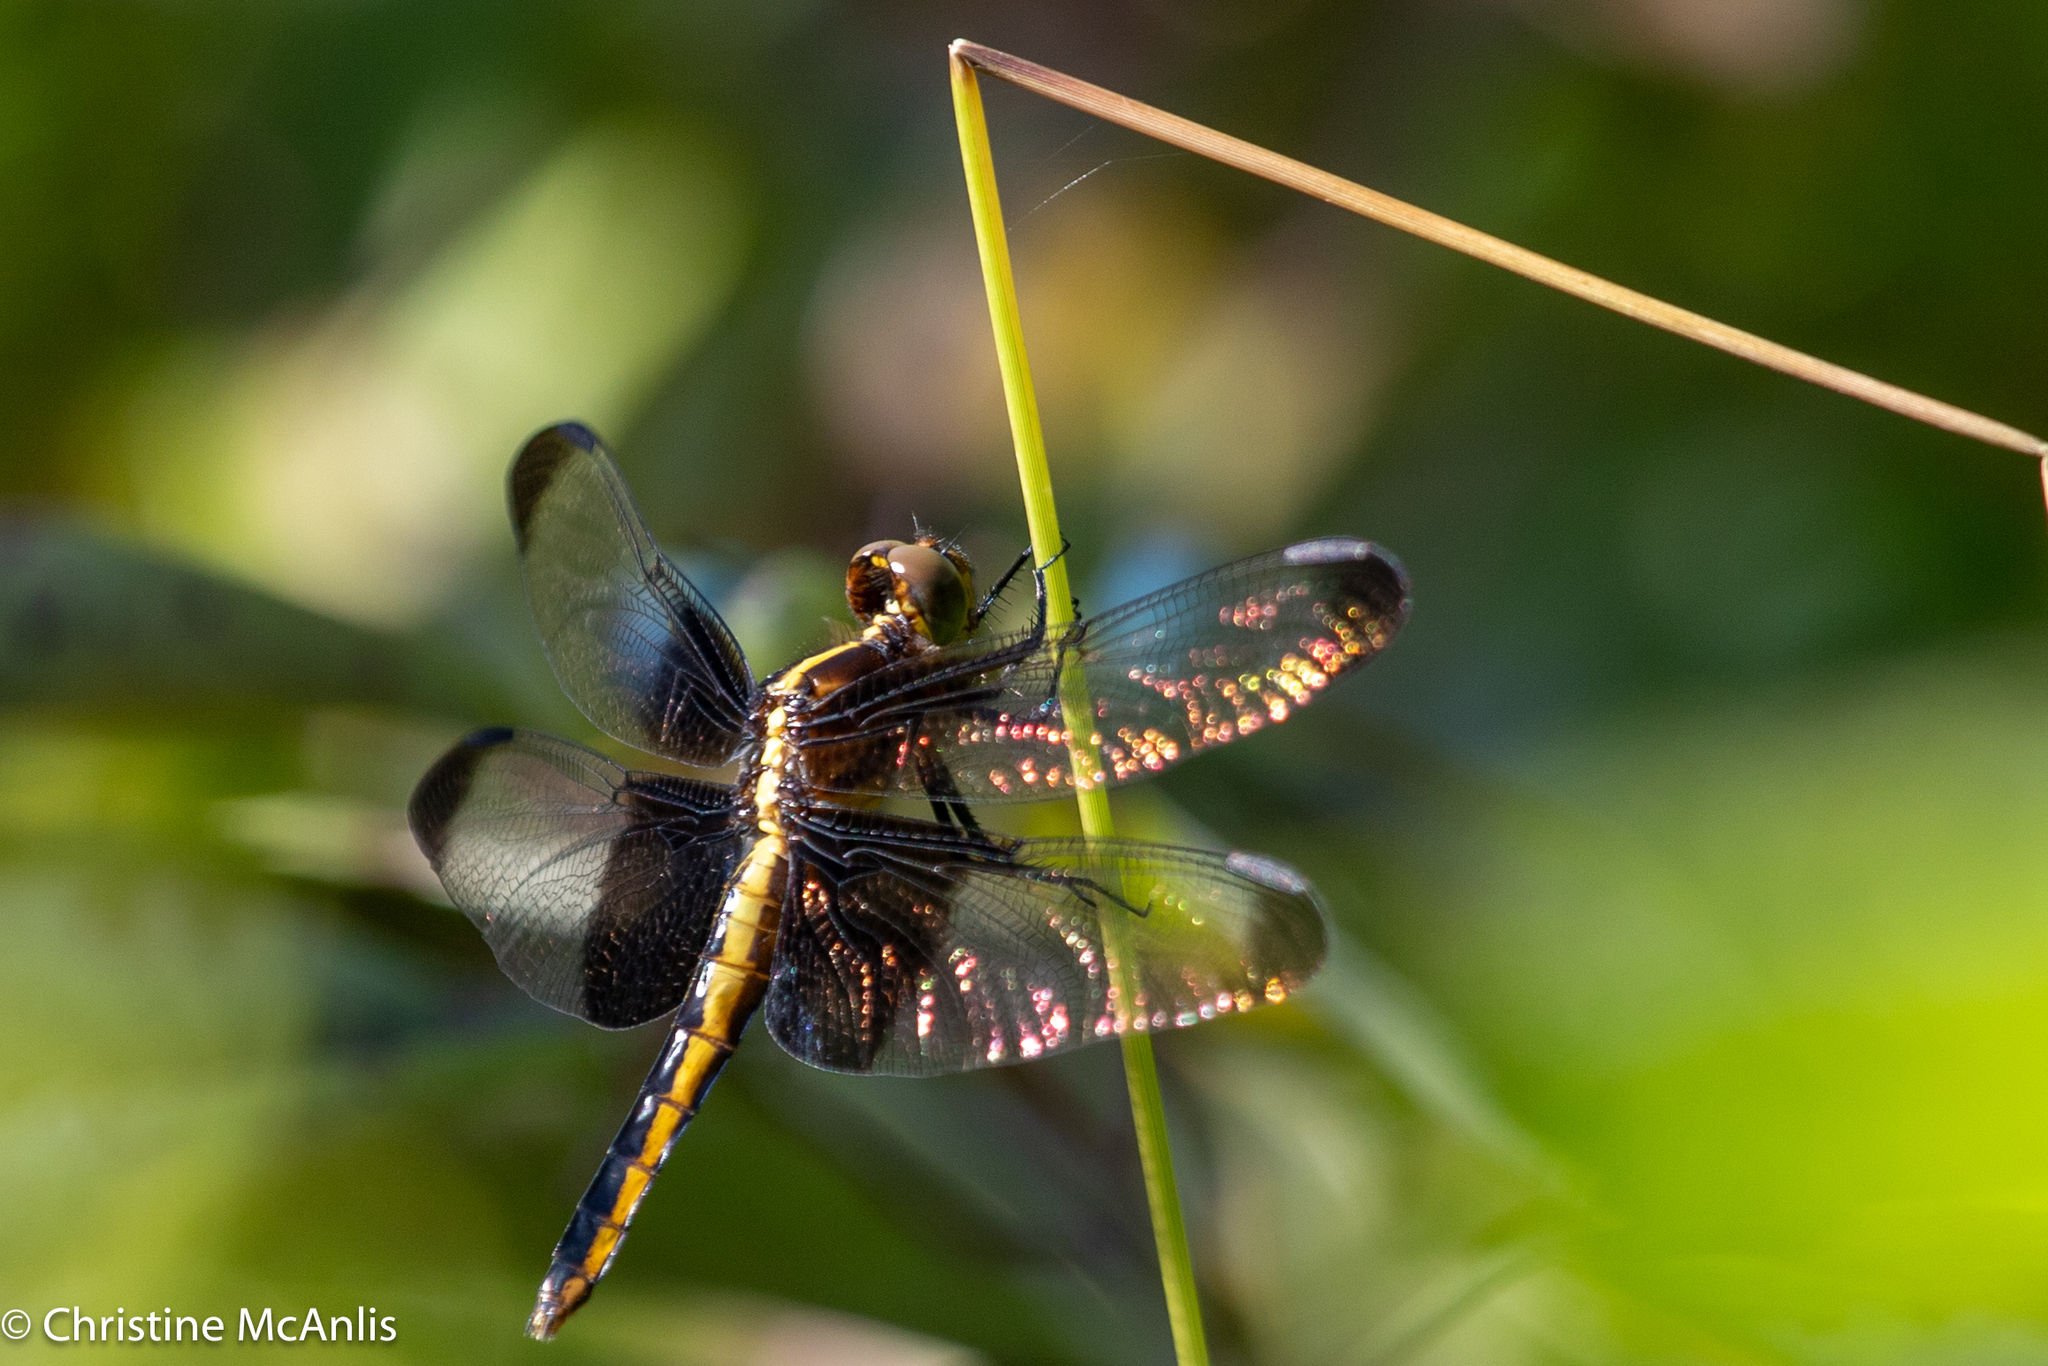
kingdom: Animalia
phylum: Arthropoda
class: Insecta
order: Odonata
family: Libellulidae
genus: Libellula
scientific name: Libellula luctuosa
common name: Widow skimmer
